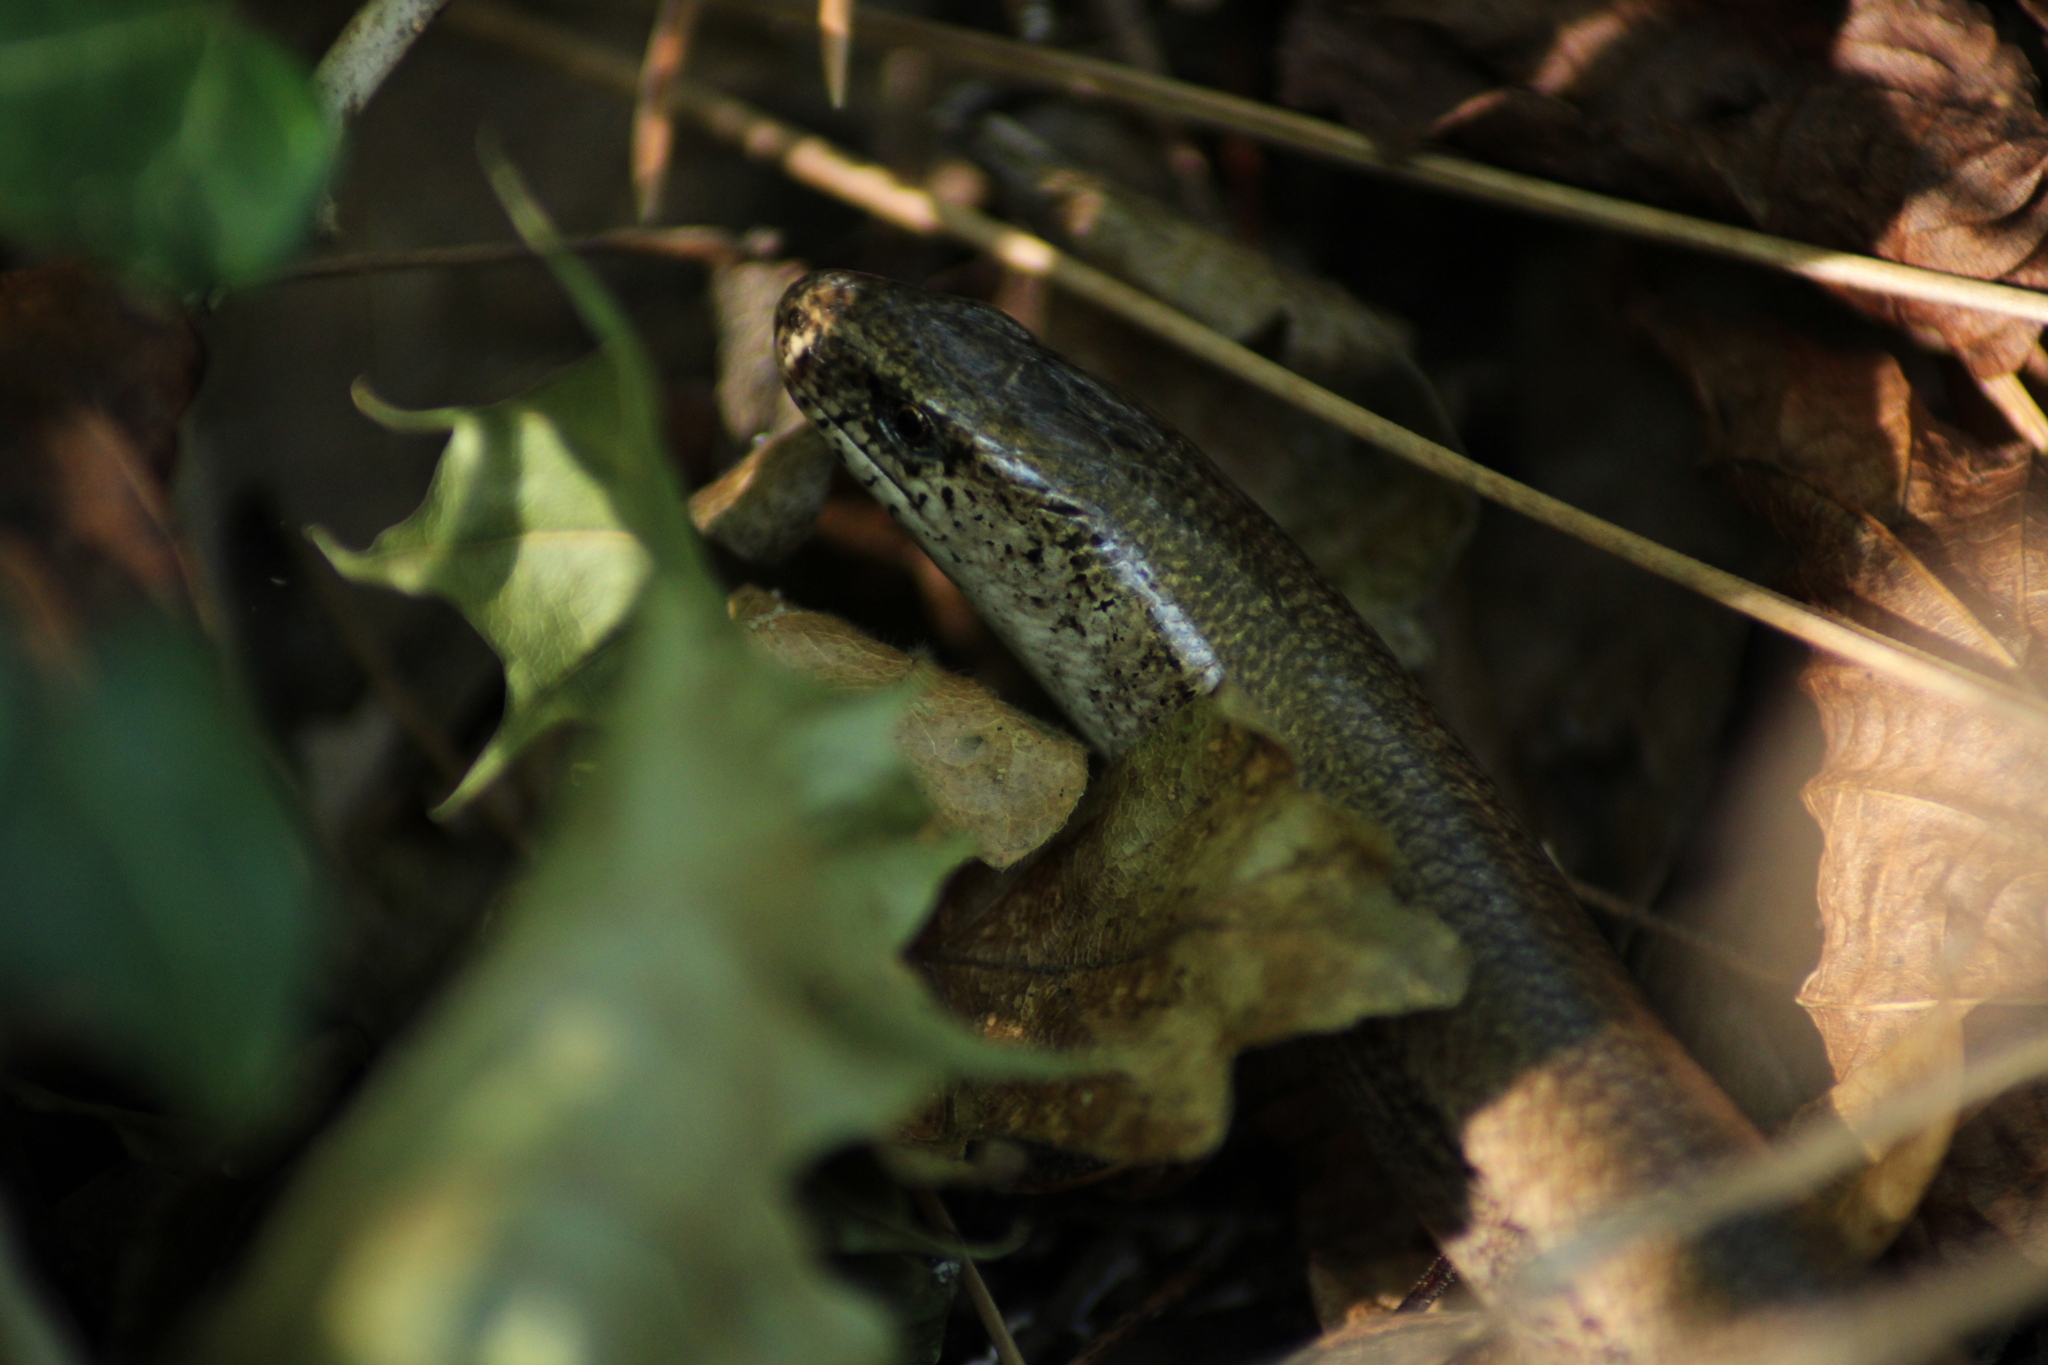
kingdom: Animalia
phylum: Chordata
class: Squamata
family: Anguidae
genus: Anguis
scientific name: Anguis fragilis
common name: Slow worm
